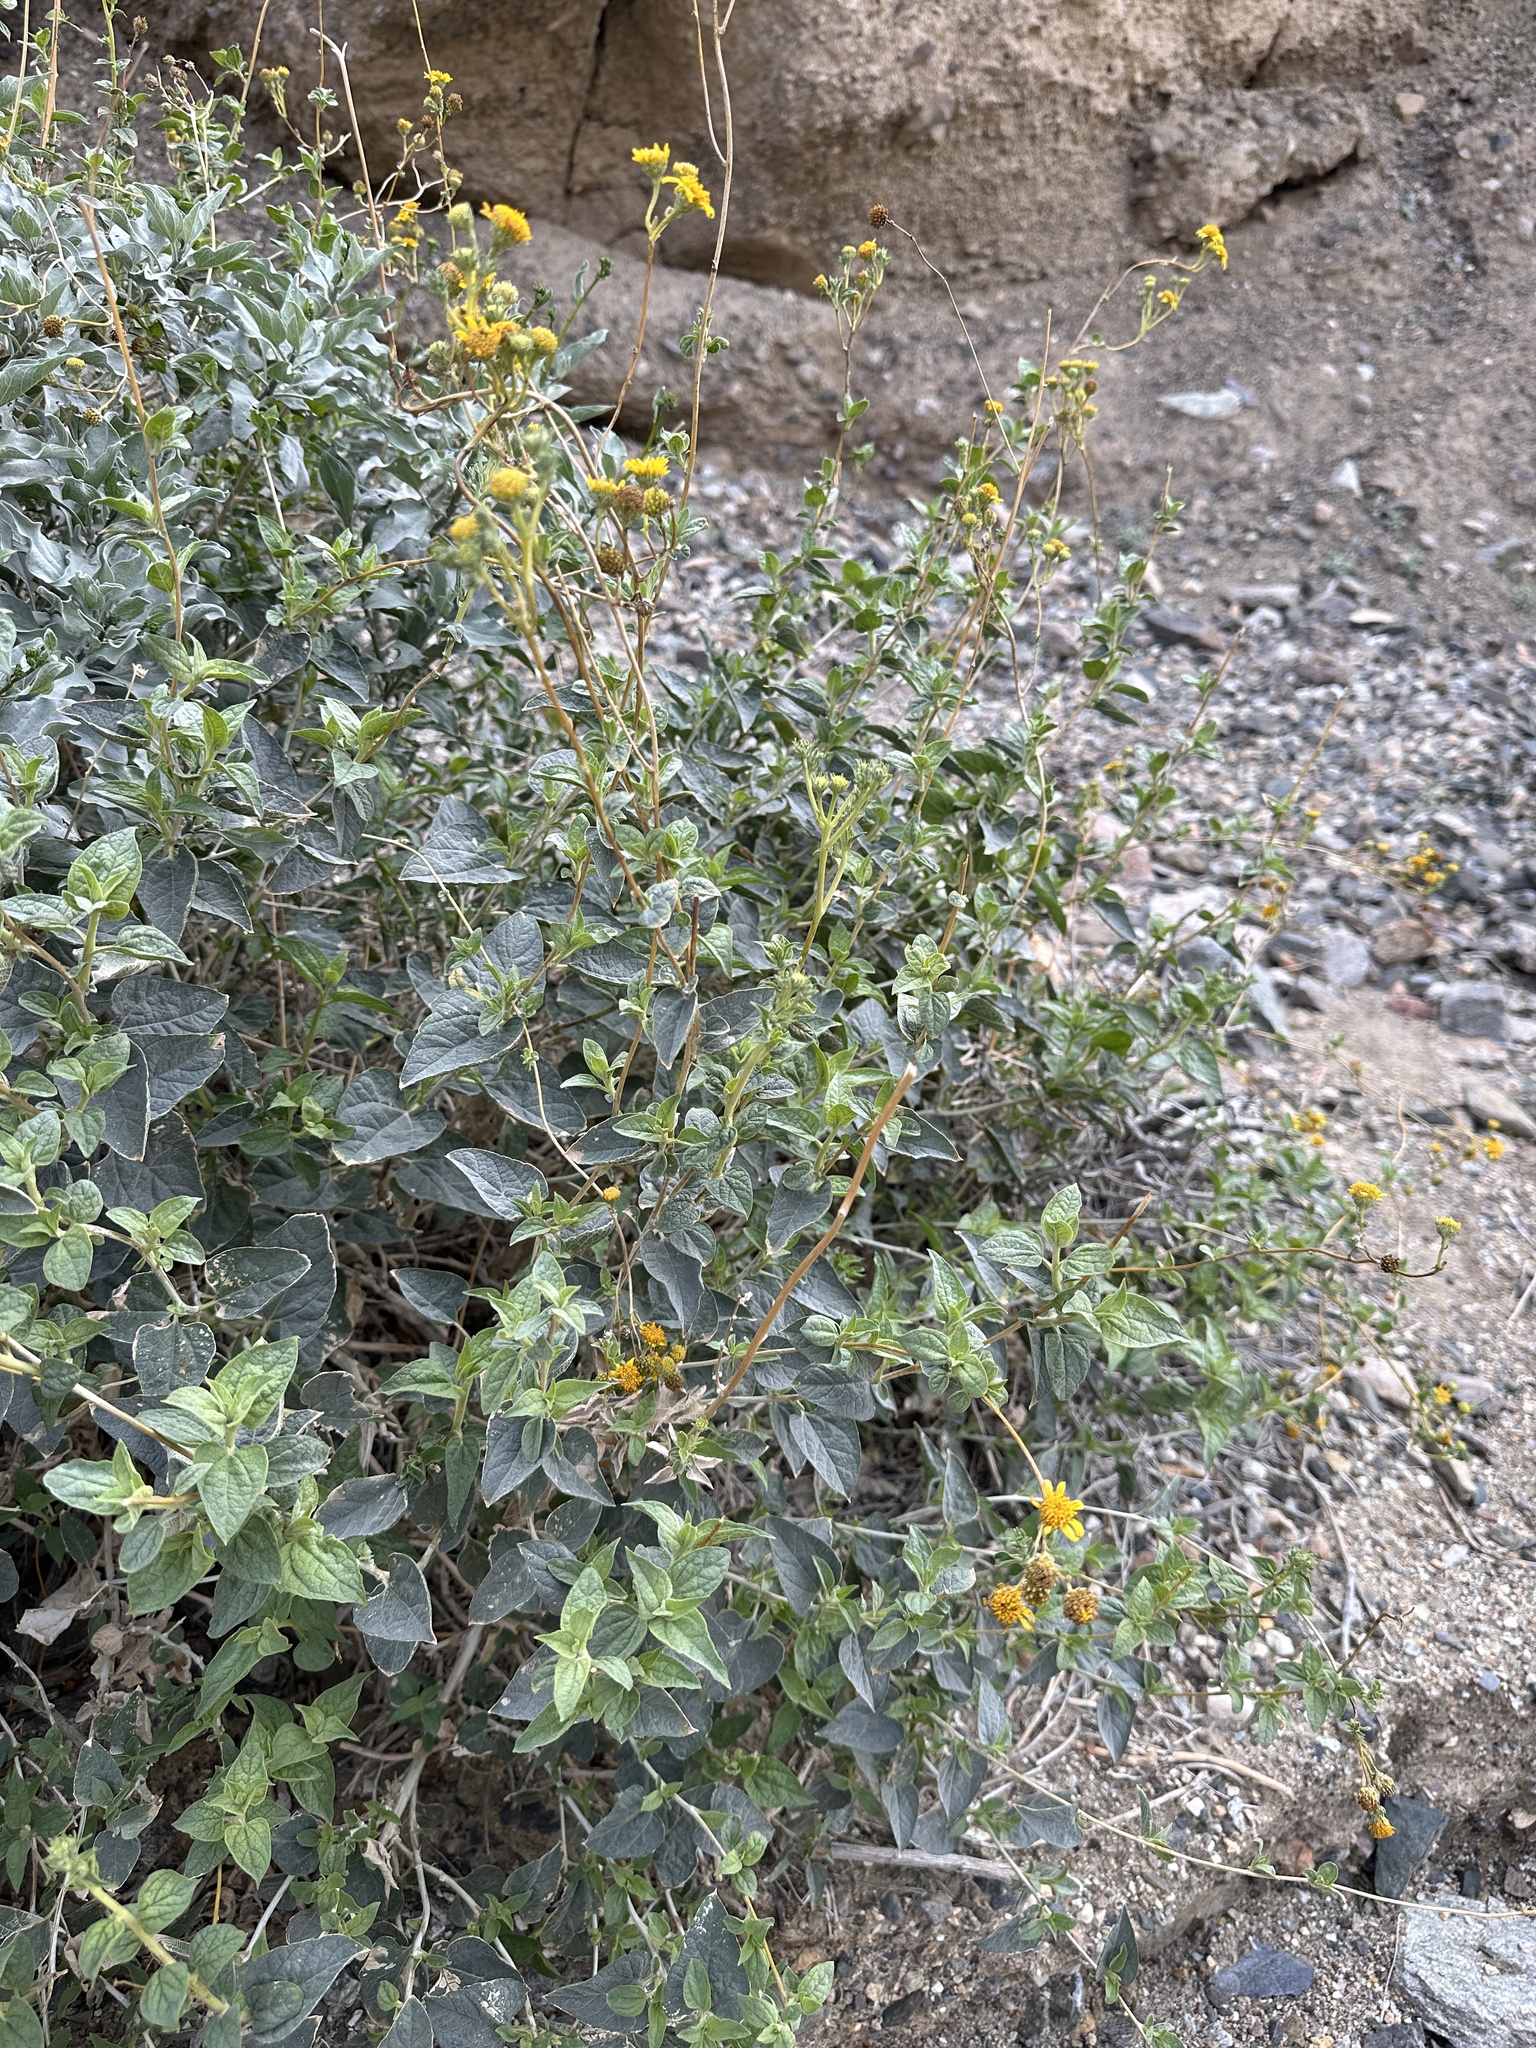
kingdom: Plantae
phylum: Tracheophyta
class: Magnoliopsida
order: Asterales
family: Asteraceae
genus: Bahiopsis
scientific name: Bahiopsis reticulata
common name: Death valley goldeneye
